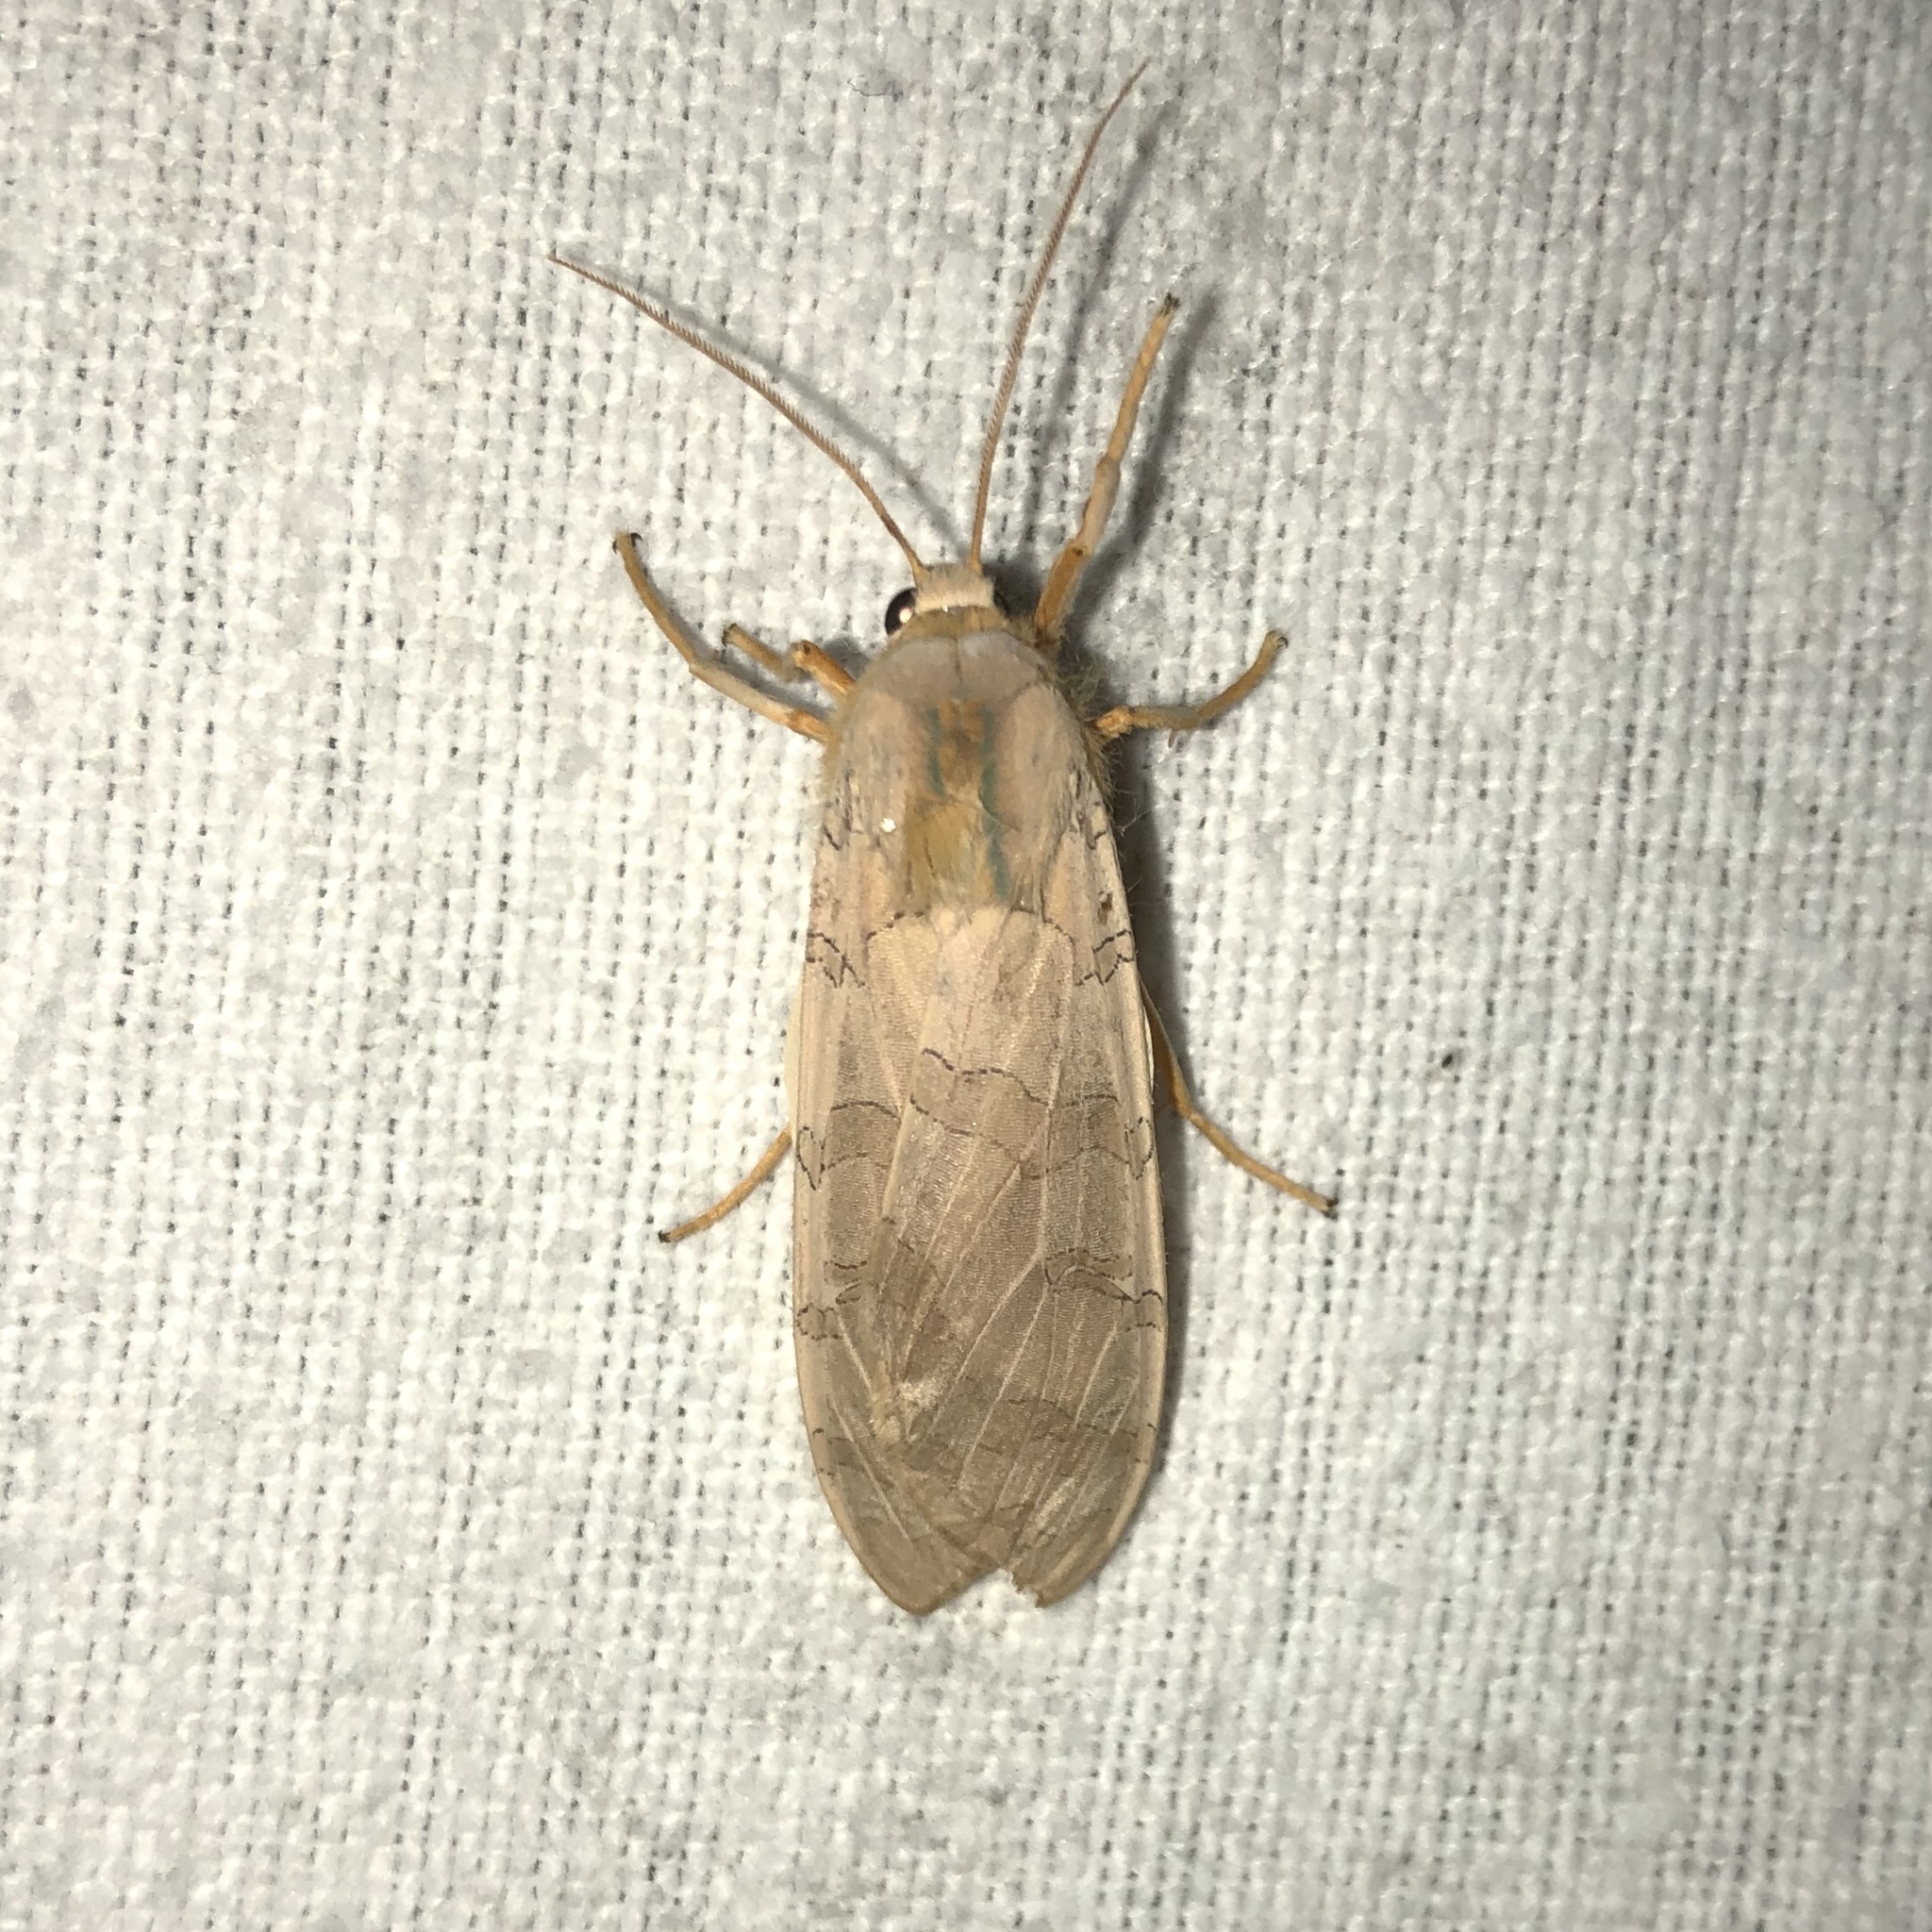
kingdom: Animalia
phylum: Arthropoda
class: Insecta
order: Lepidoptera
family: Erebidae
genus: Halysidota
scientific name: Halysidota tessellaris
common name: Banded tussock moth
